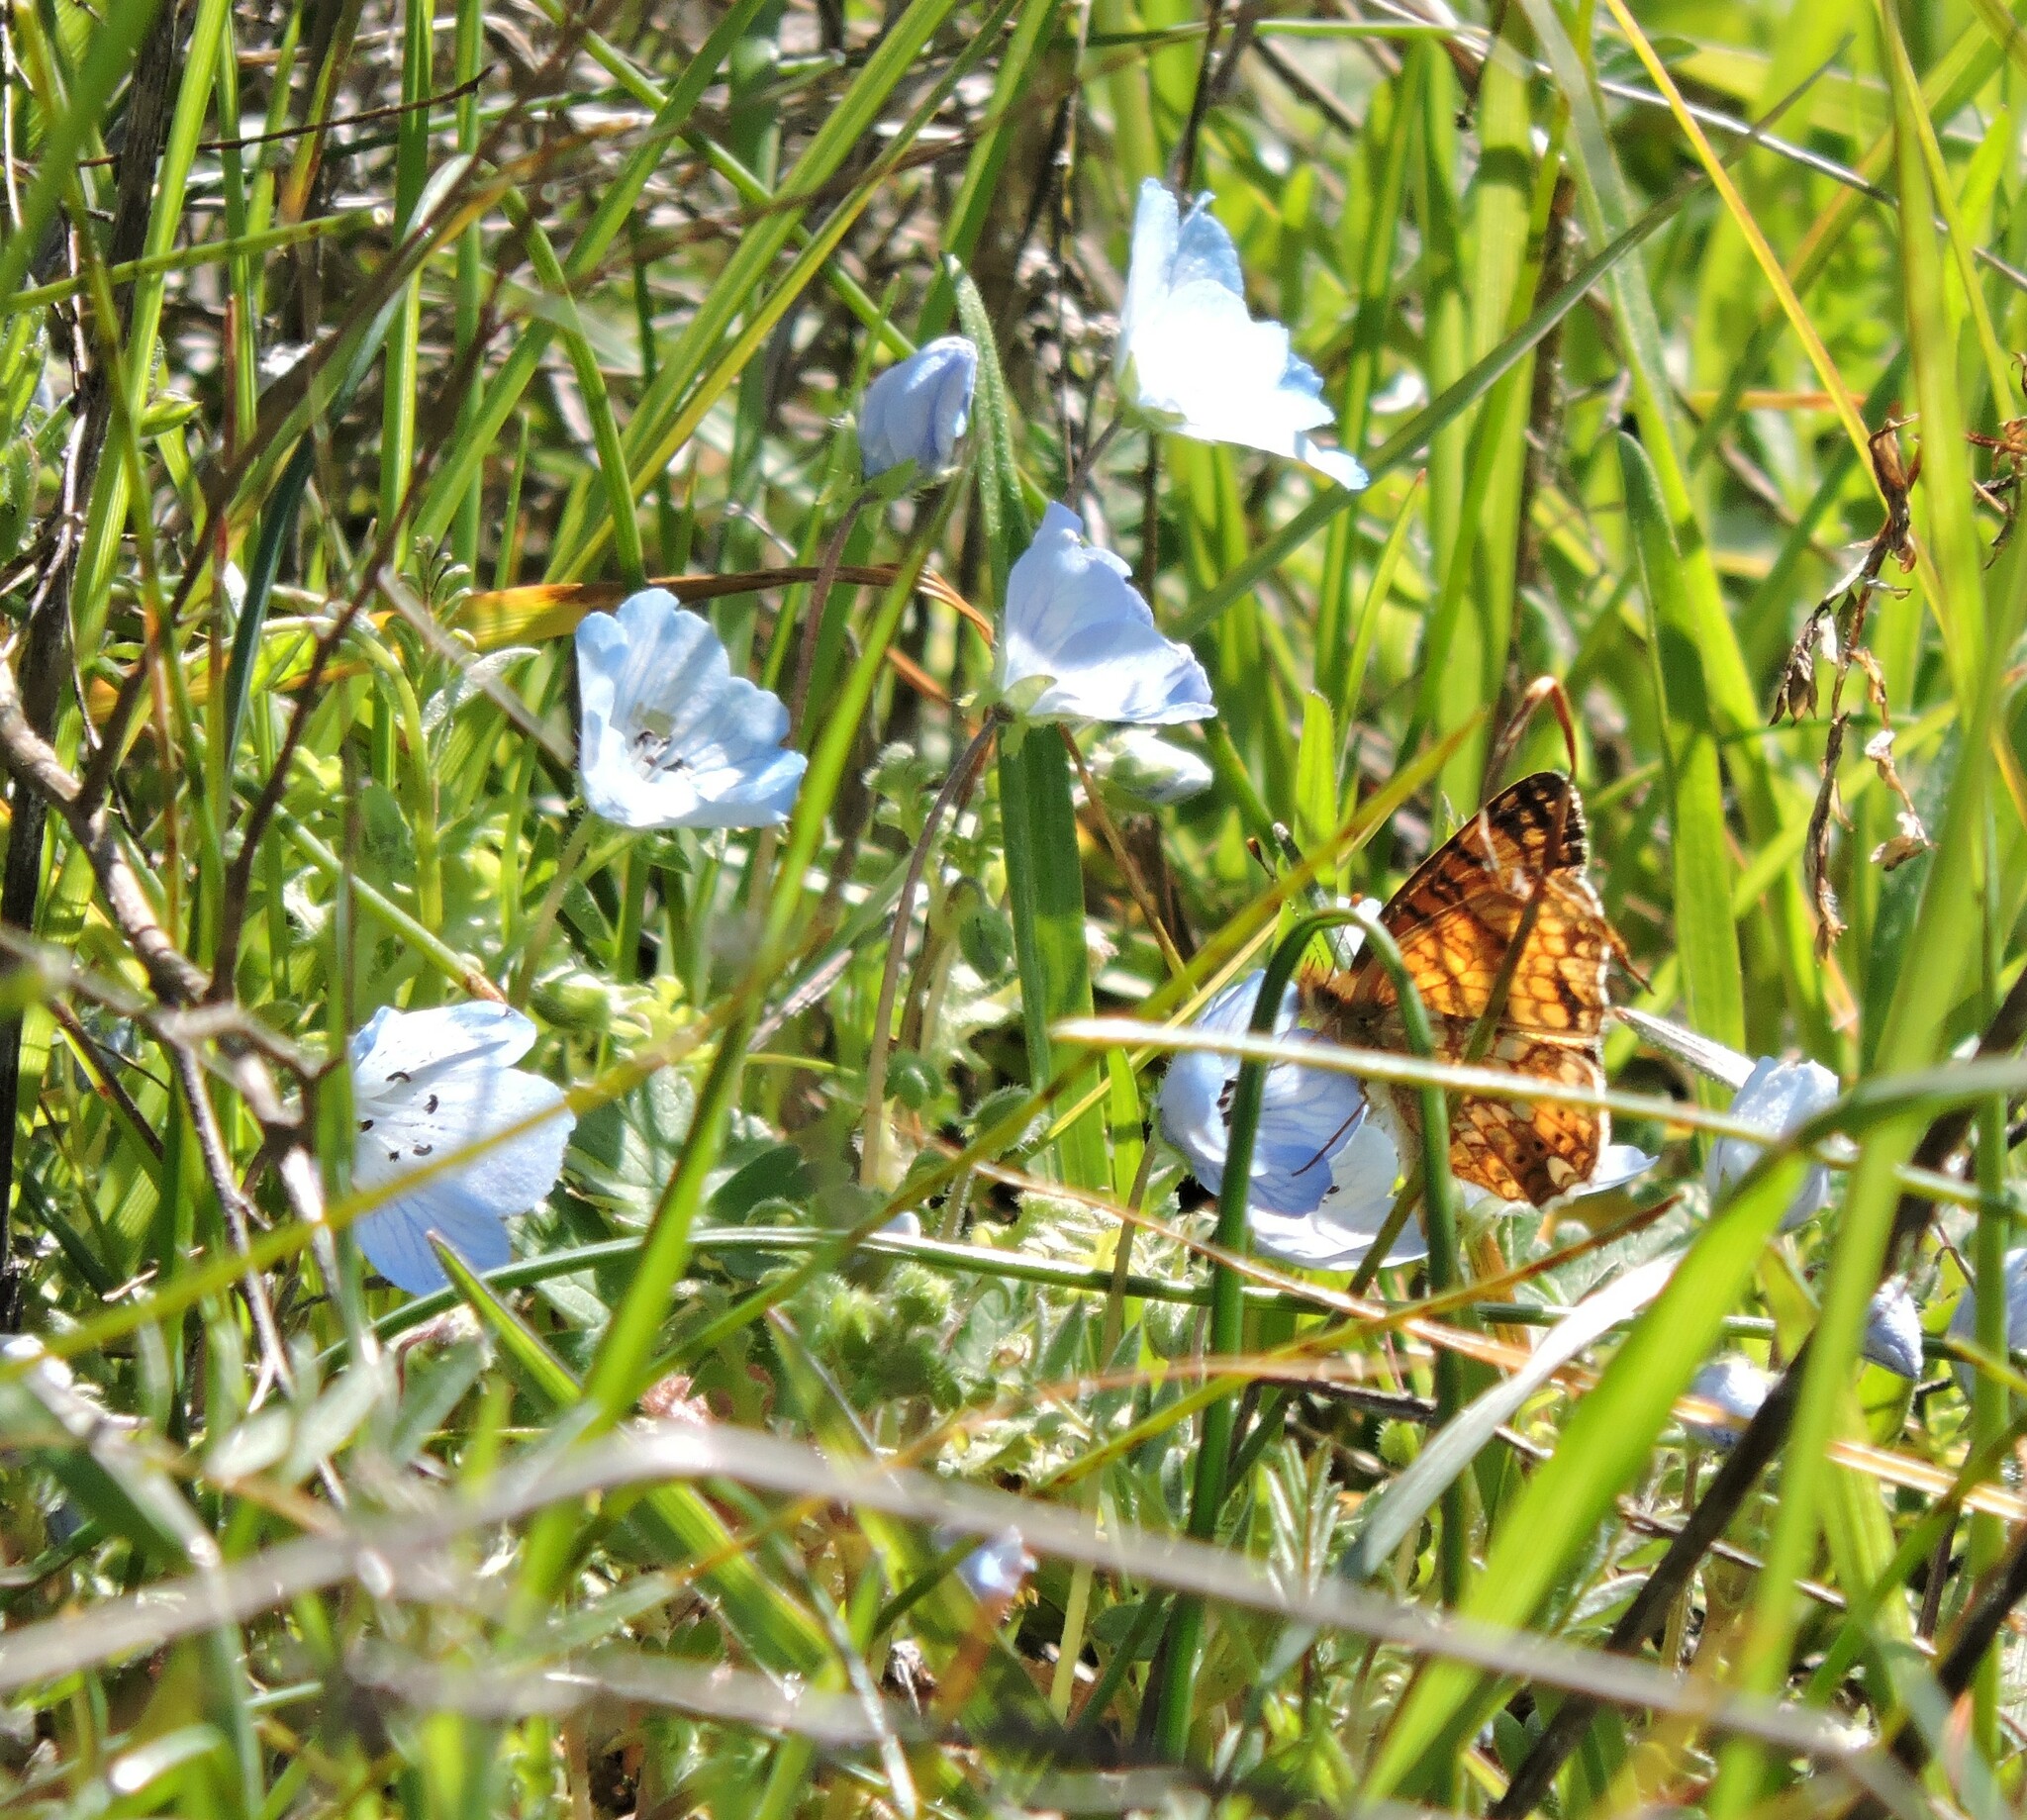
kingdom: Plantae
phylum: Tracheophyta
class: Magnoliopsida
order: Boraginales
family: Hydrophyllaceae
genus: Nemophila
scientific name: Nemophila menziesii
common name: Baby's-blue-eyes
